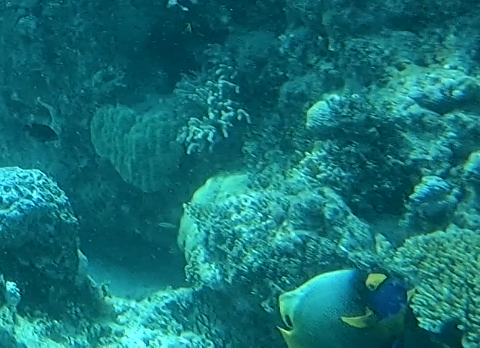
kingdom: Animalia
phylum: Chordata
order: Perciformes
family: Pomacanthidae
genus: Pomacanthus
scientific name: Pomacanthus xanthometopon
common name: Yellow-faced angelfish
